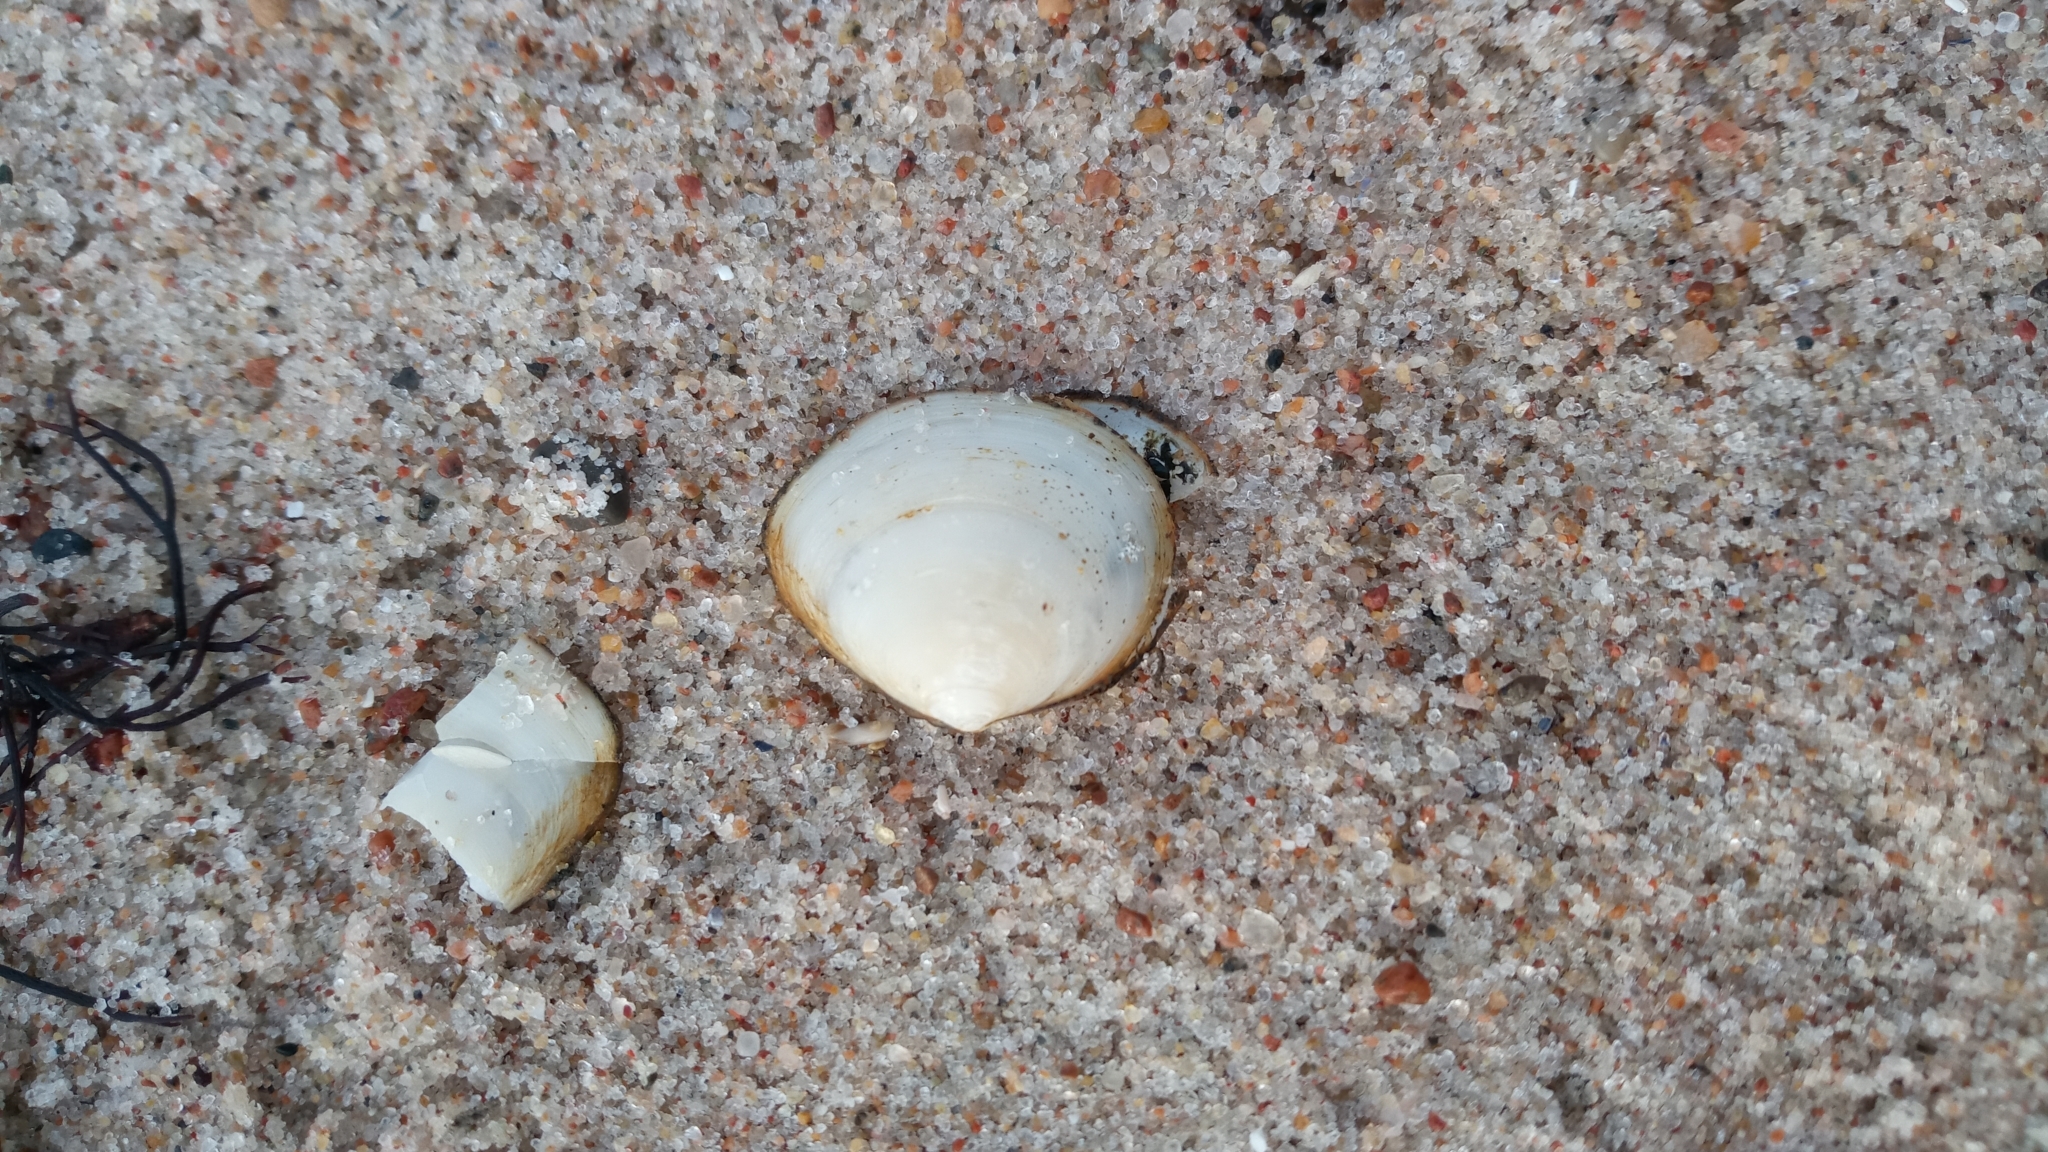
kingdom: Animalia
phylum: Mollusca
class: Bivalvia
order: Cardiida
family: Tellinidae
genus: Macoma
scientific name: Macoma balthica
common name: Baltic tellin
